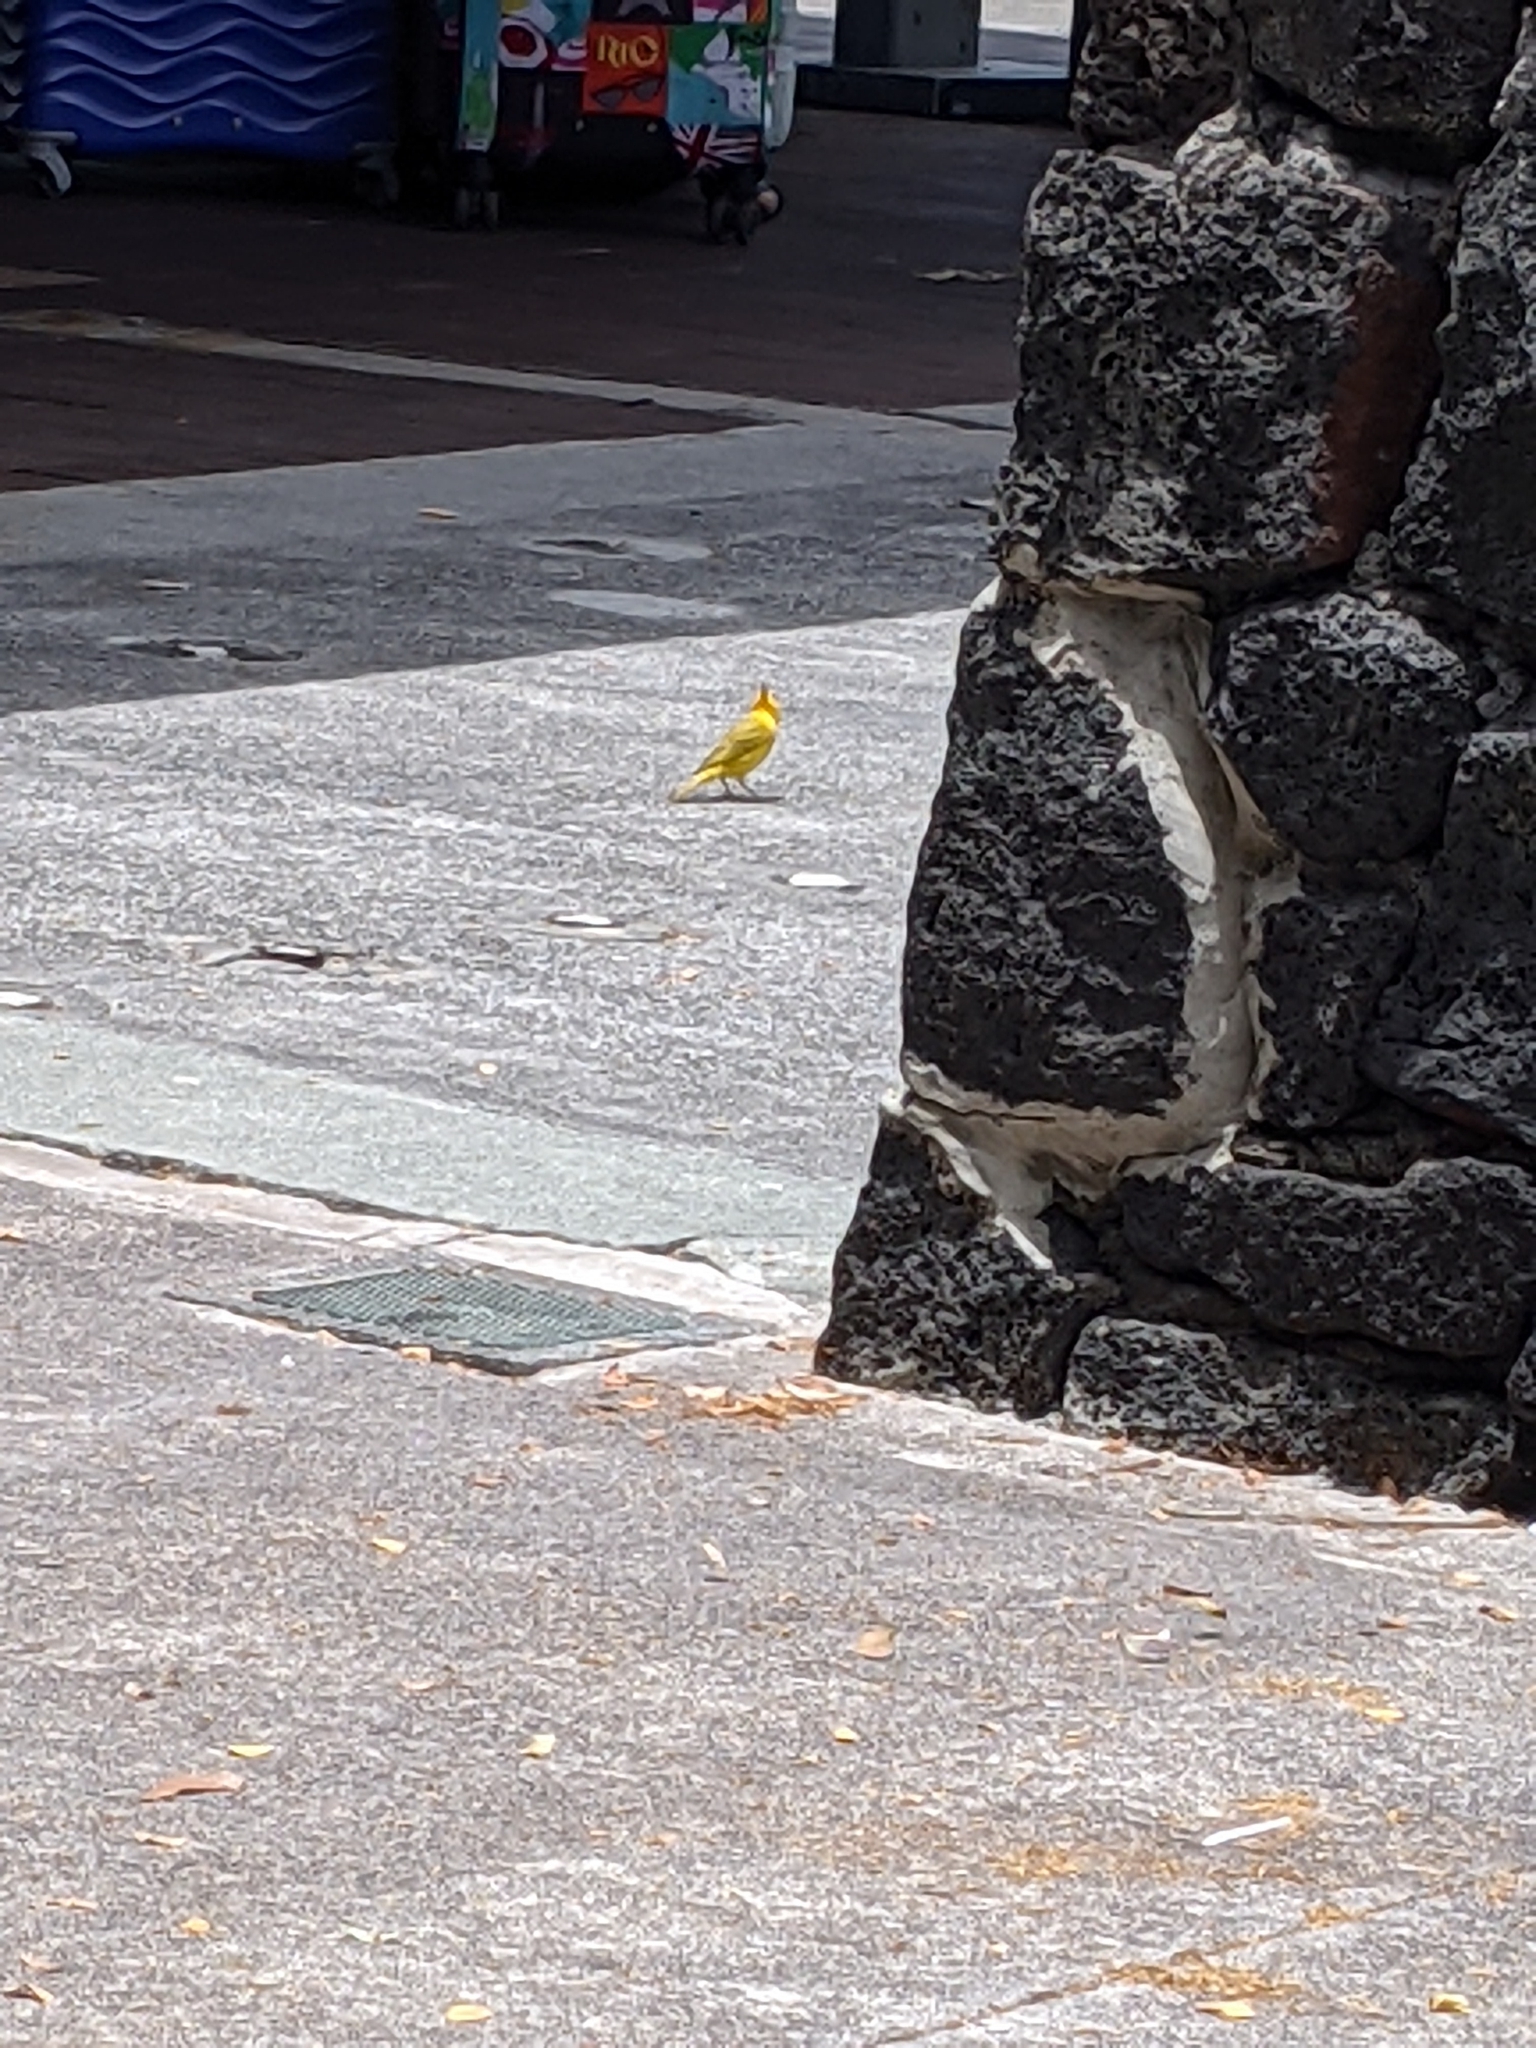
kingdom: Animalia
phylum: Chordata
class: Aves
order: Passeriformes
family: Thraupidae
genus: Sicalis
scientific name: Sicalis flaveola
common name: Saffron finch
